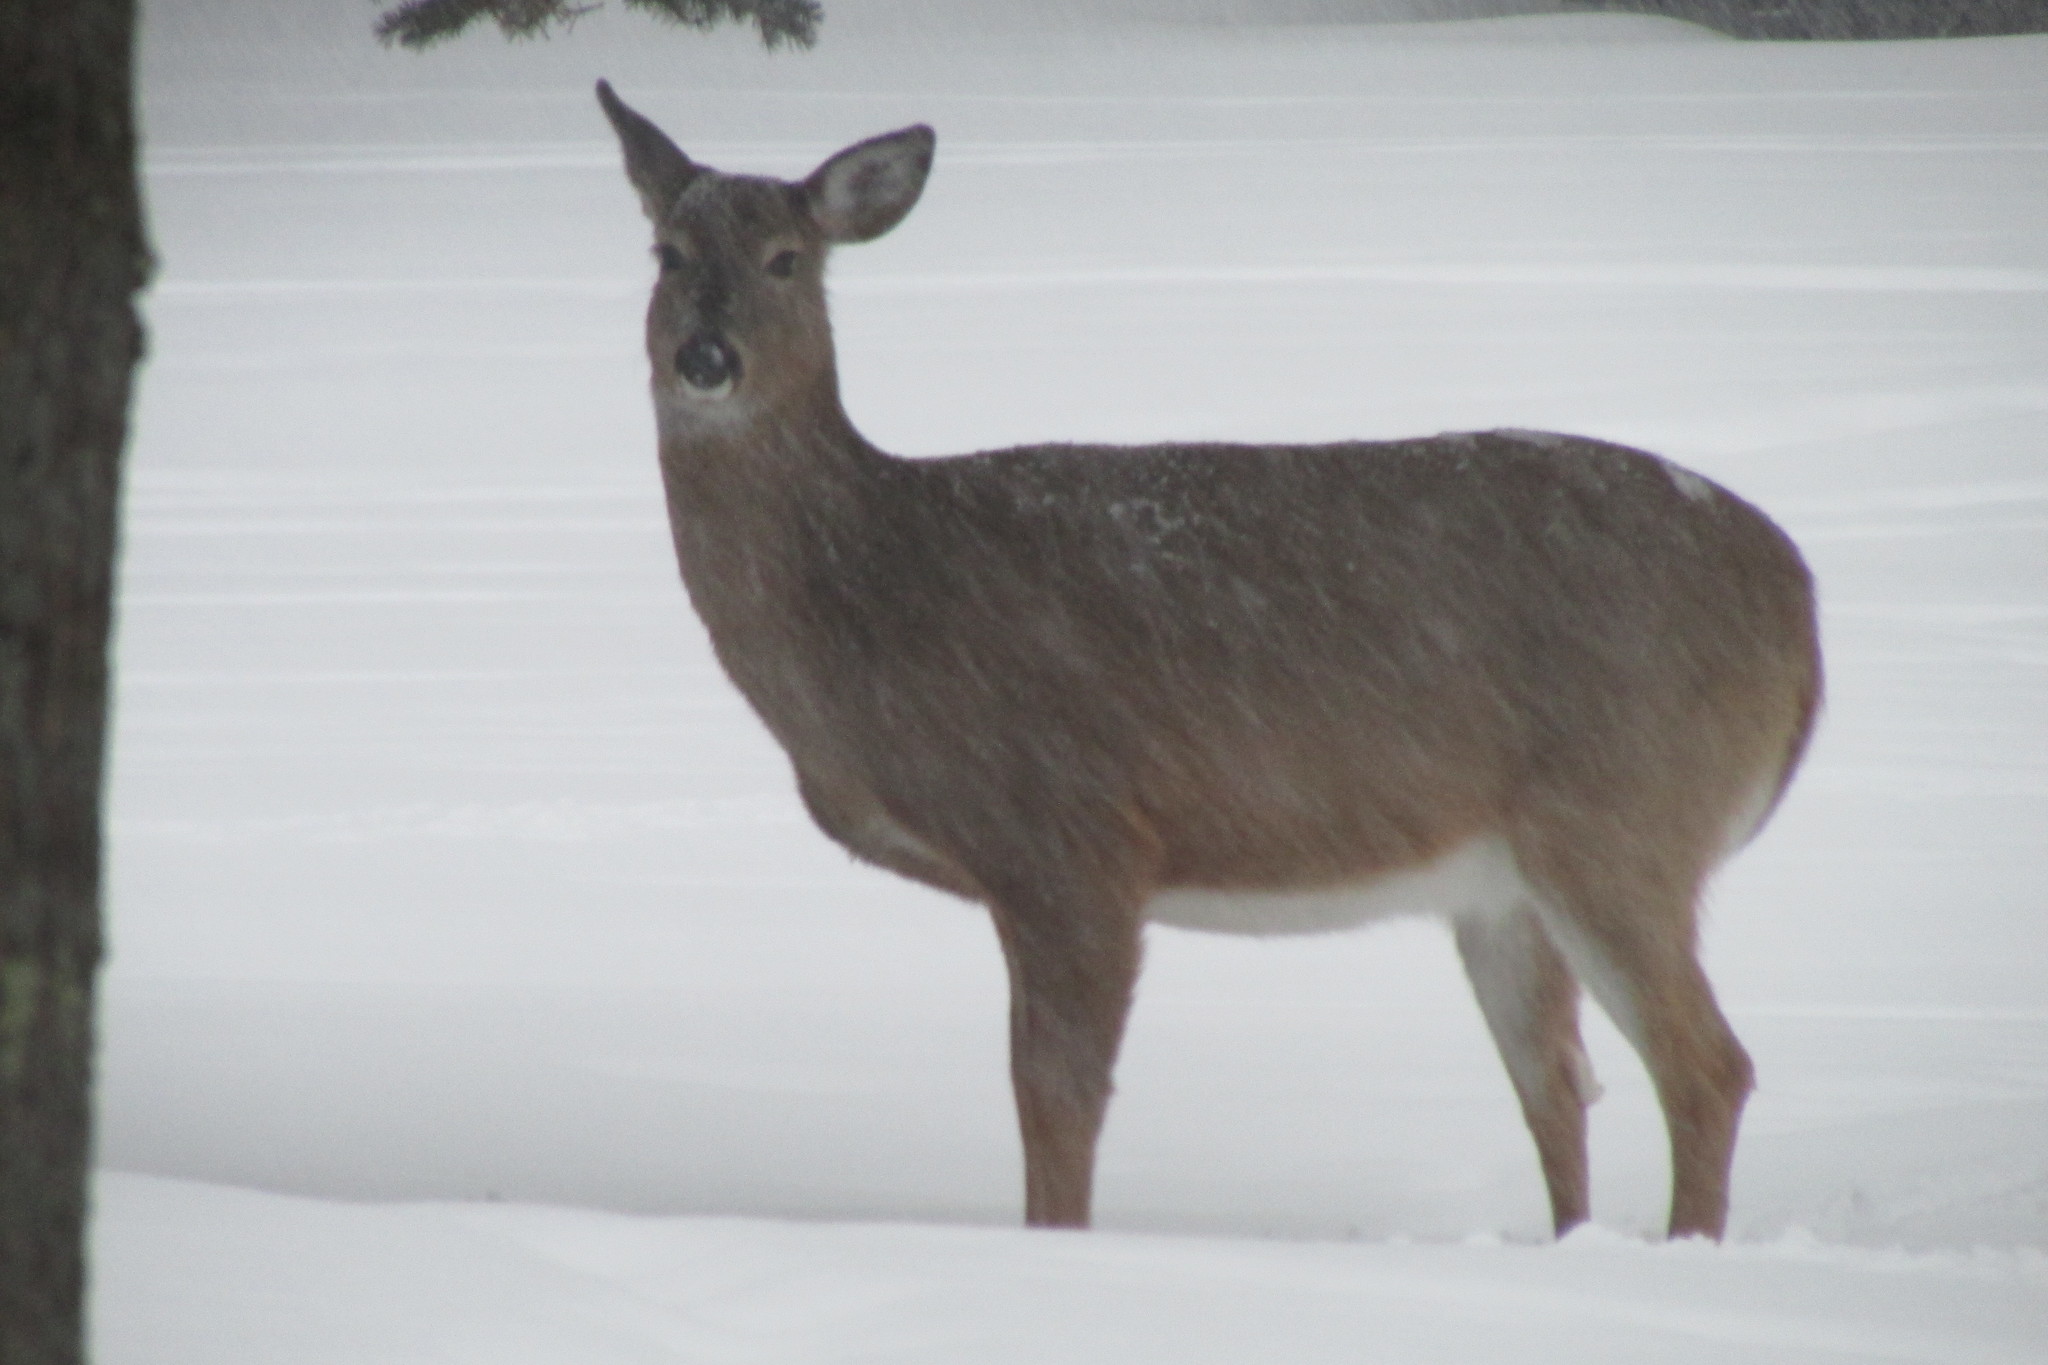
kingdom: Animalia
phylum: Chordata
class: Mammalia
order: Artiodactyla
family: Cervidae
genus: Odocoileus
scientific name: Odocoileus virginianus
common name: White-tailed deer
